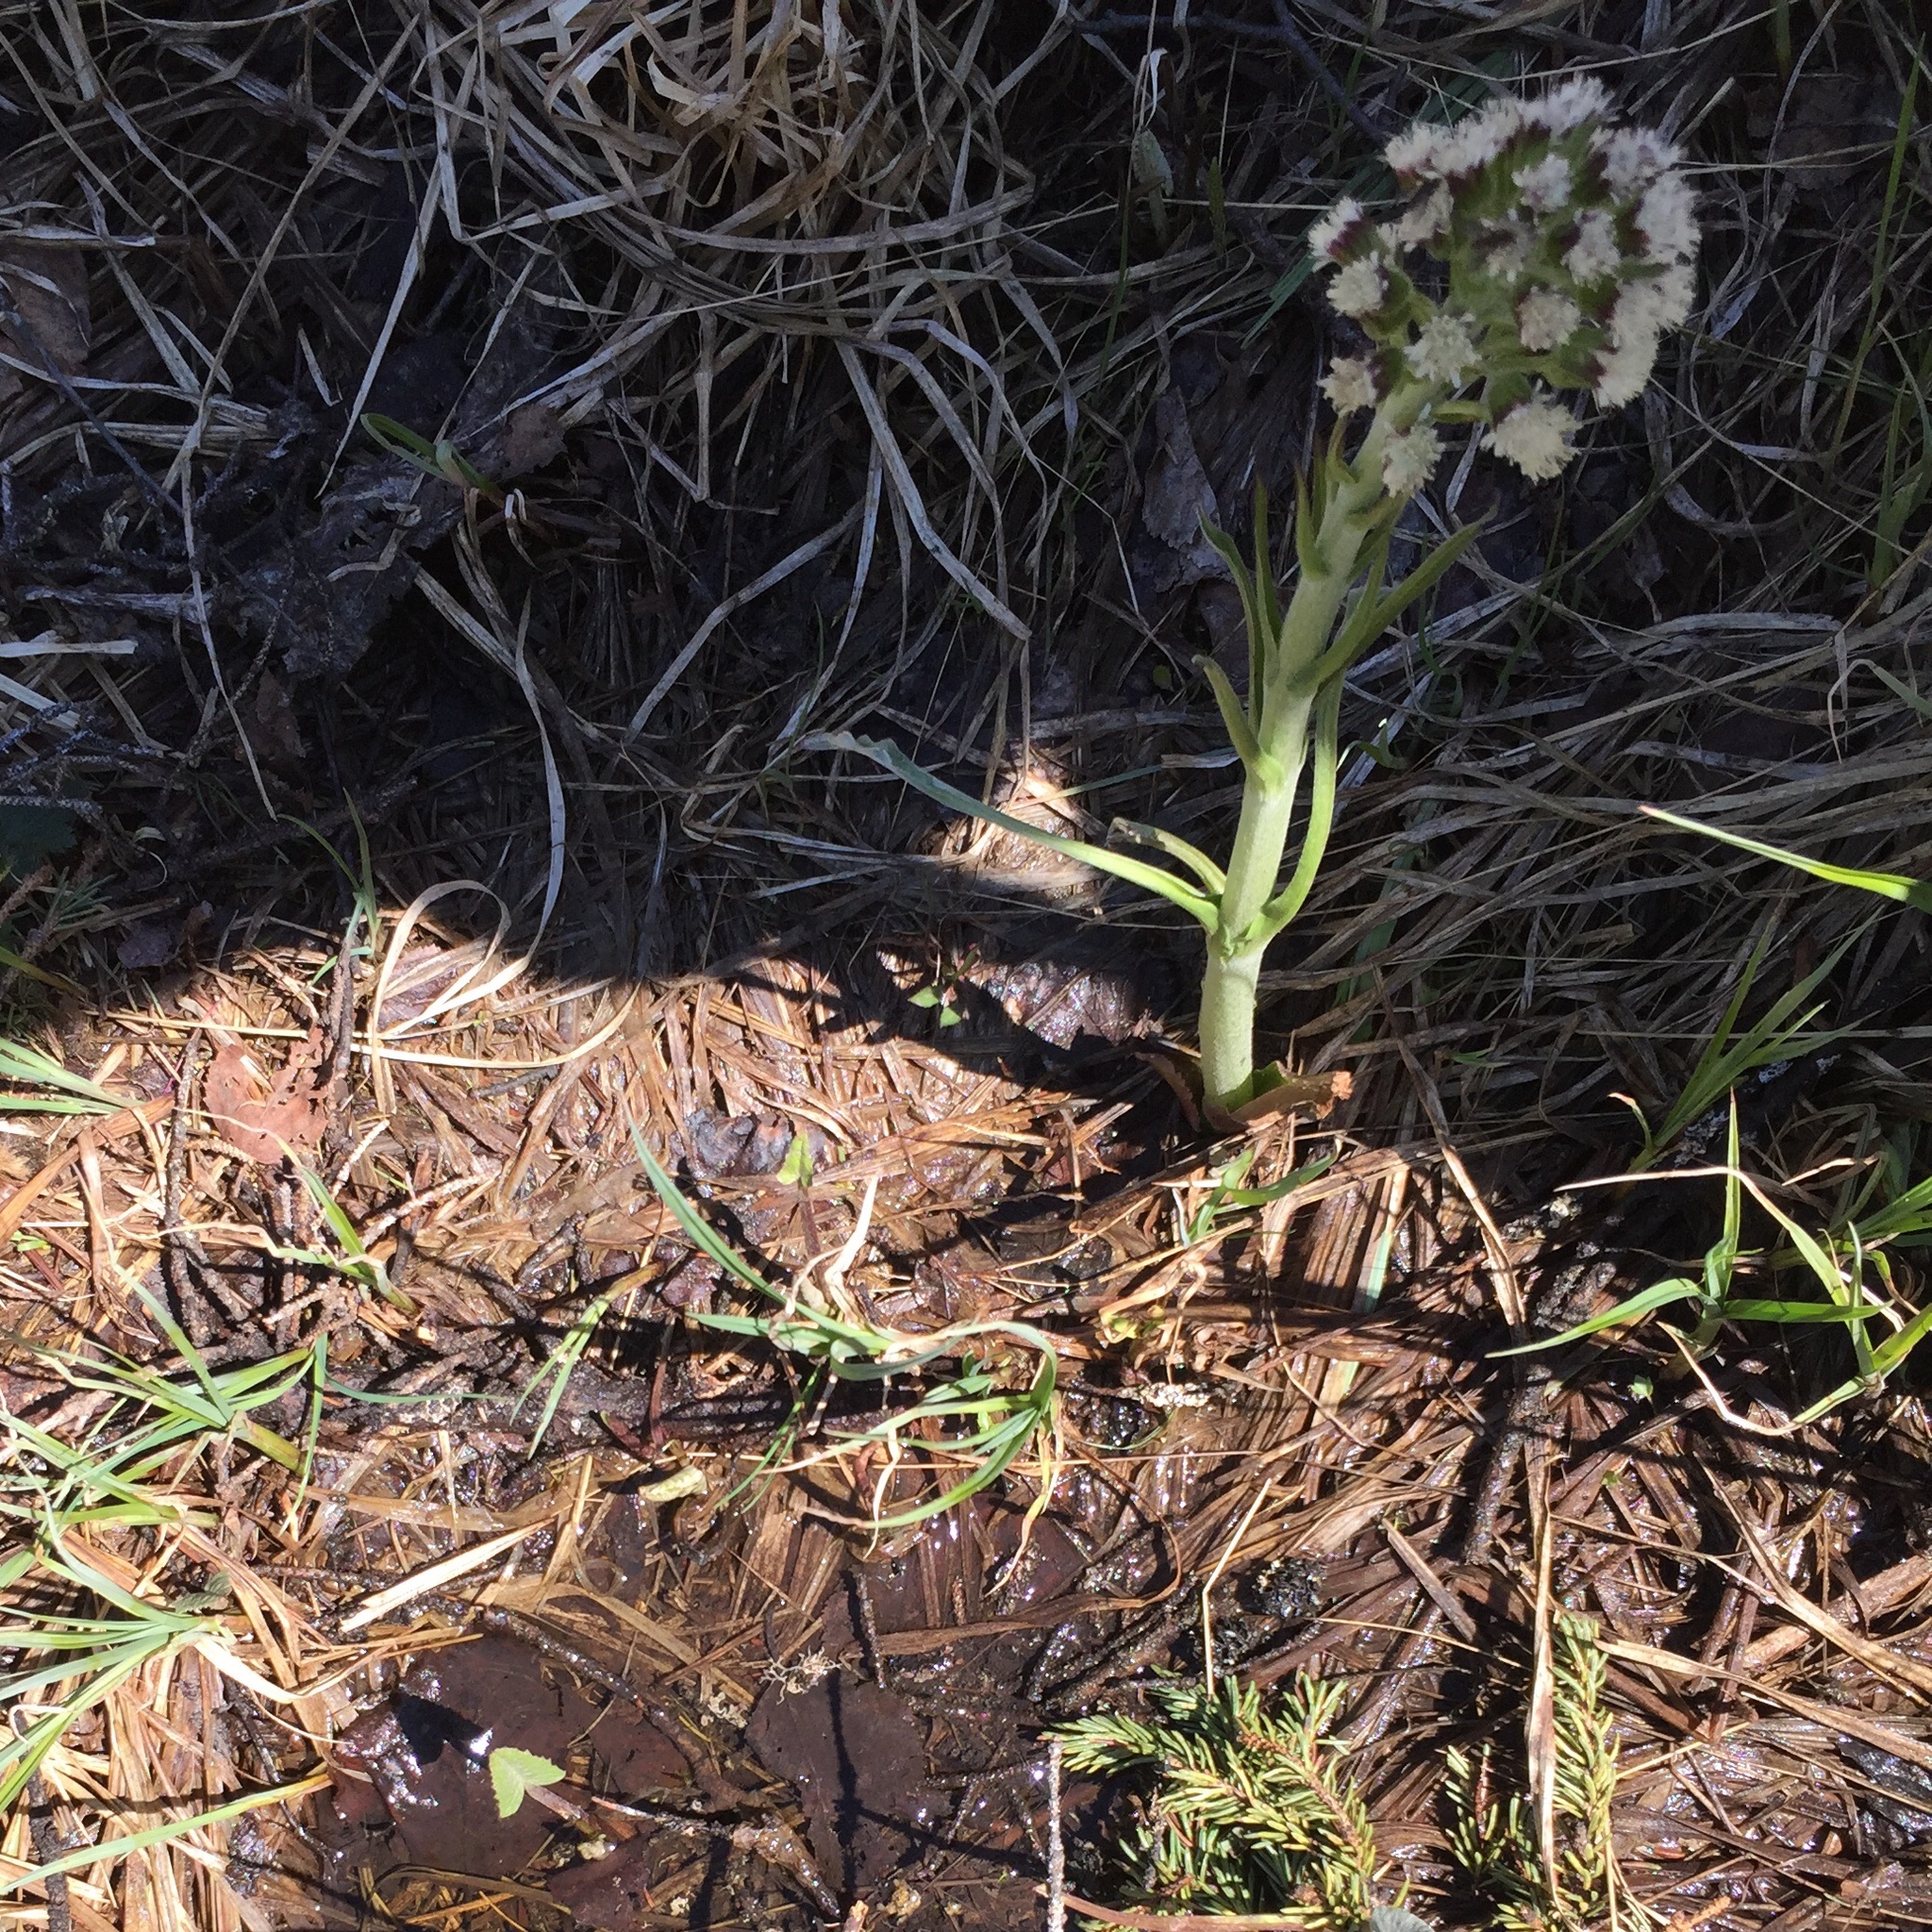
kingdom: Plantae
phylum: Tracheophyta
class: Magnoliopsida
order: Asterales
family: Asteraceae
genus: Petasites
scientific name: Petasites frigidus
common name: Arctic butterbur
